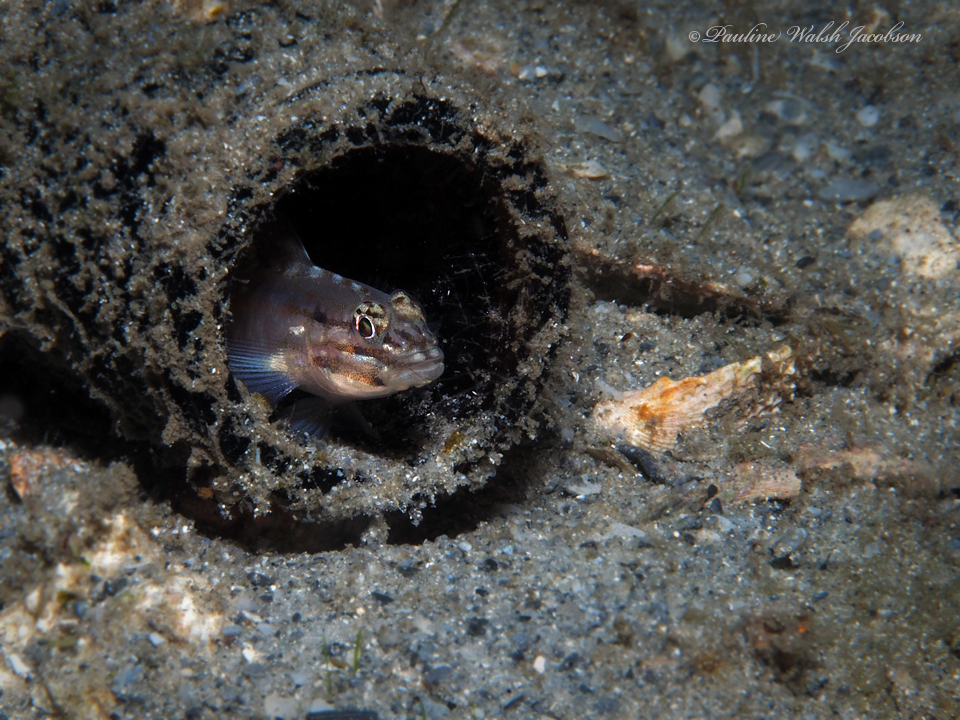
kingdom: Animalia
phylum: Chordata
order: Perciformes
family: Gobiidae
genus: Coryphopterus
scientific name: Coryphopterus dicrus
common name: Colon goby
